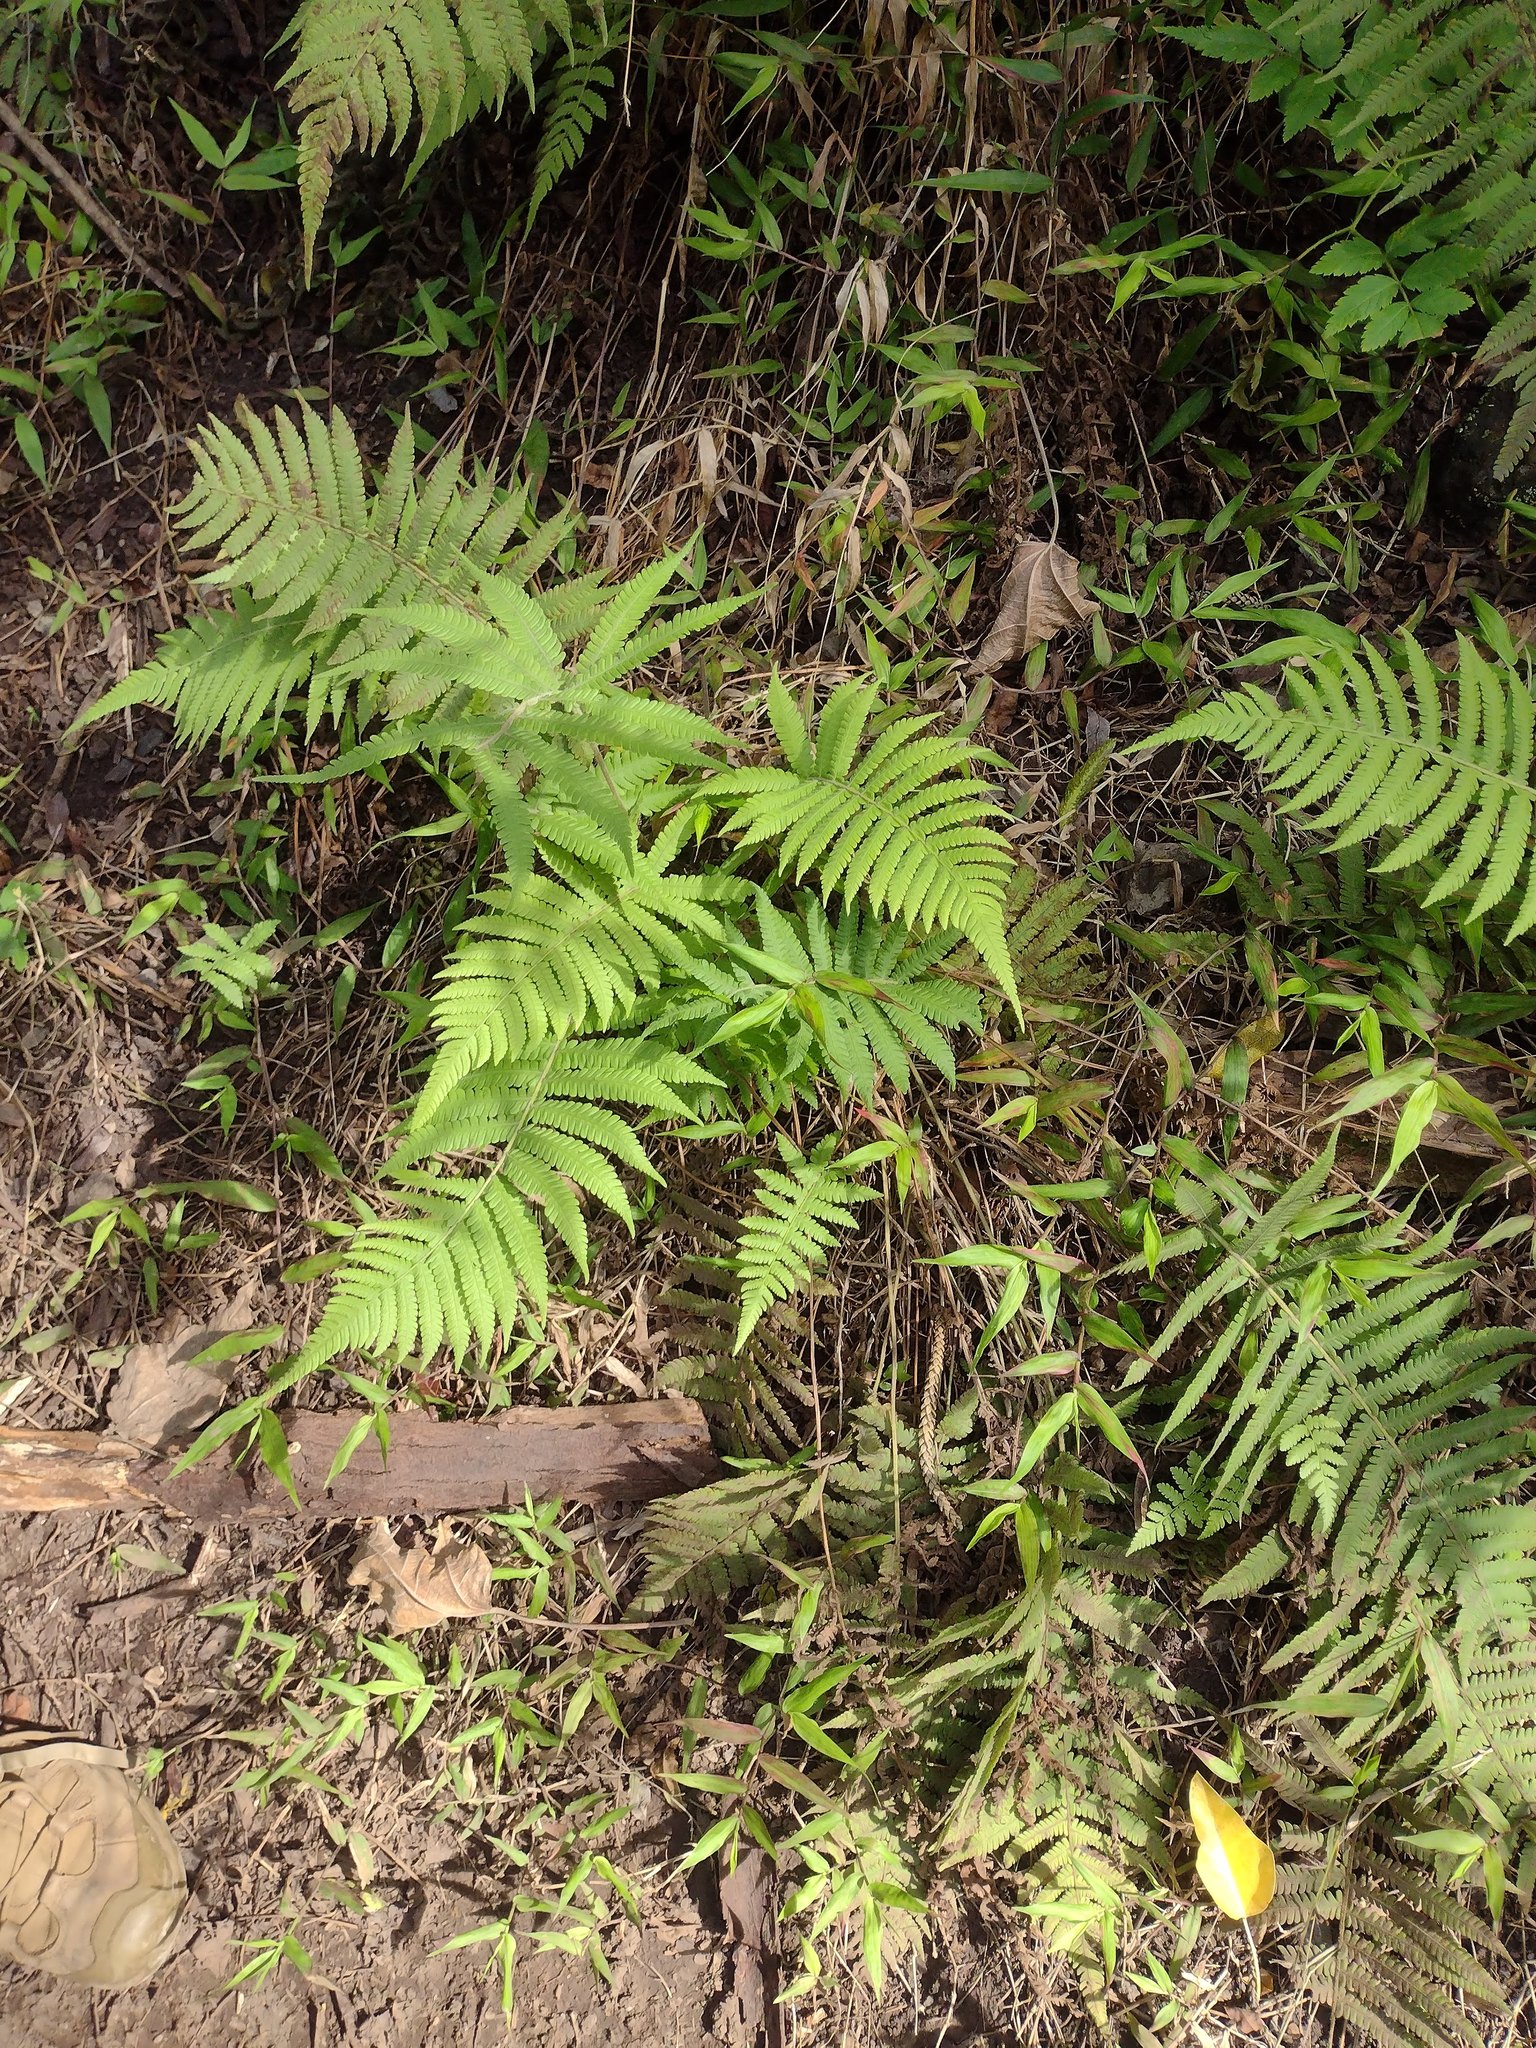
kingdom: Plantae
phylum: Tracheophyta
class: Polypodiopsida
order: Polypodiales
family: Thelypteridaceae
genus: Christella
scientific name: Christella parasitica
